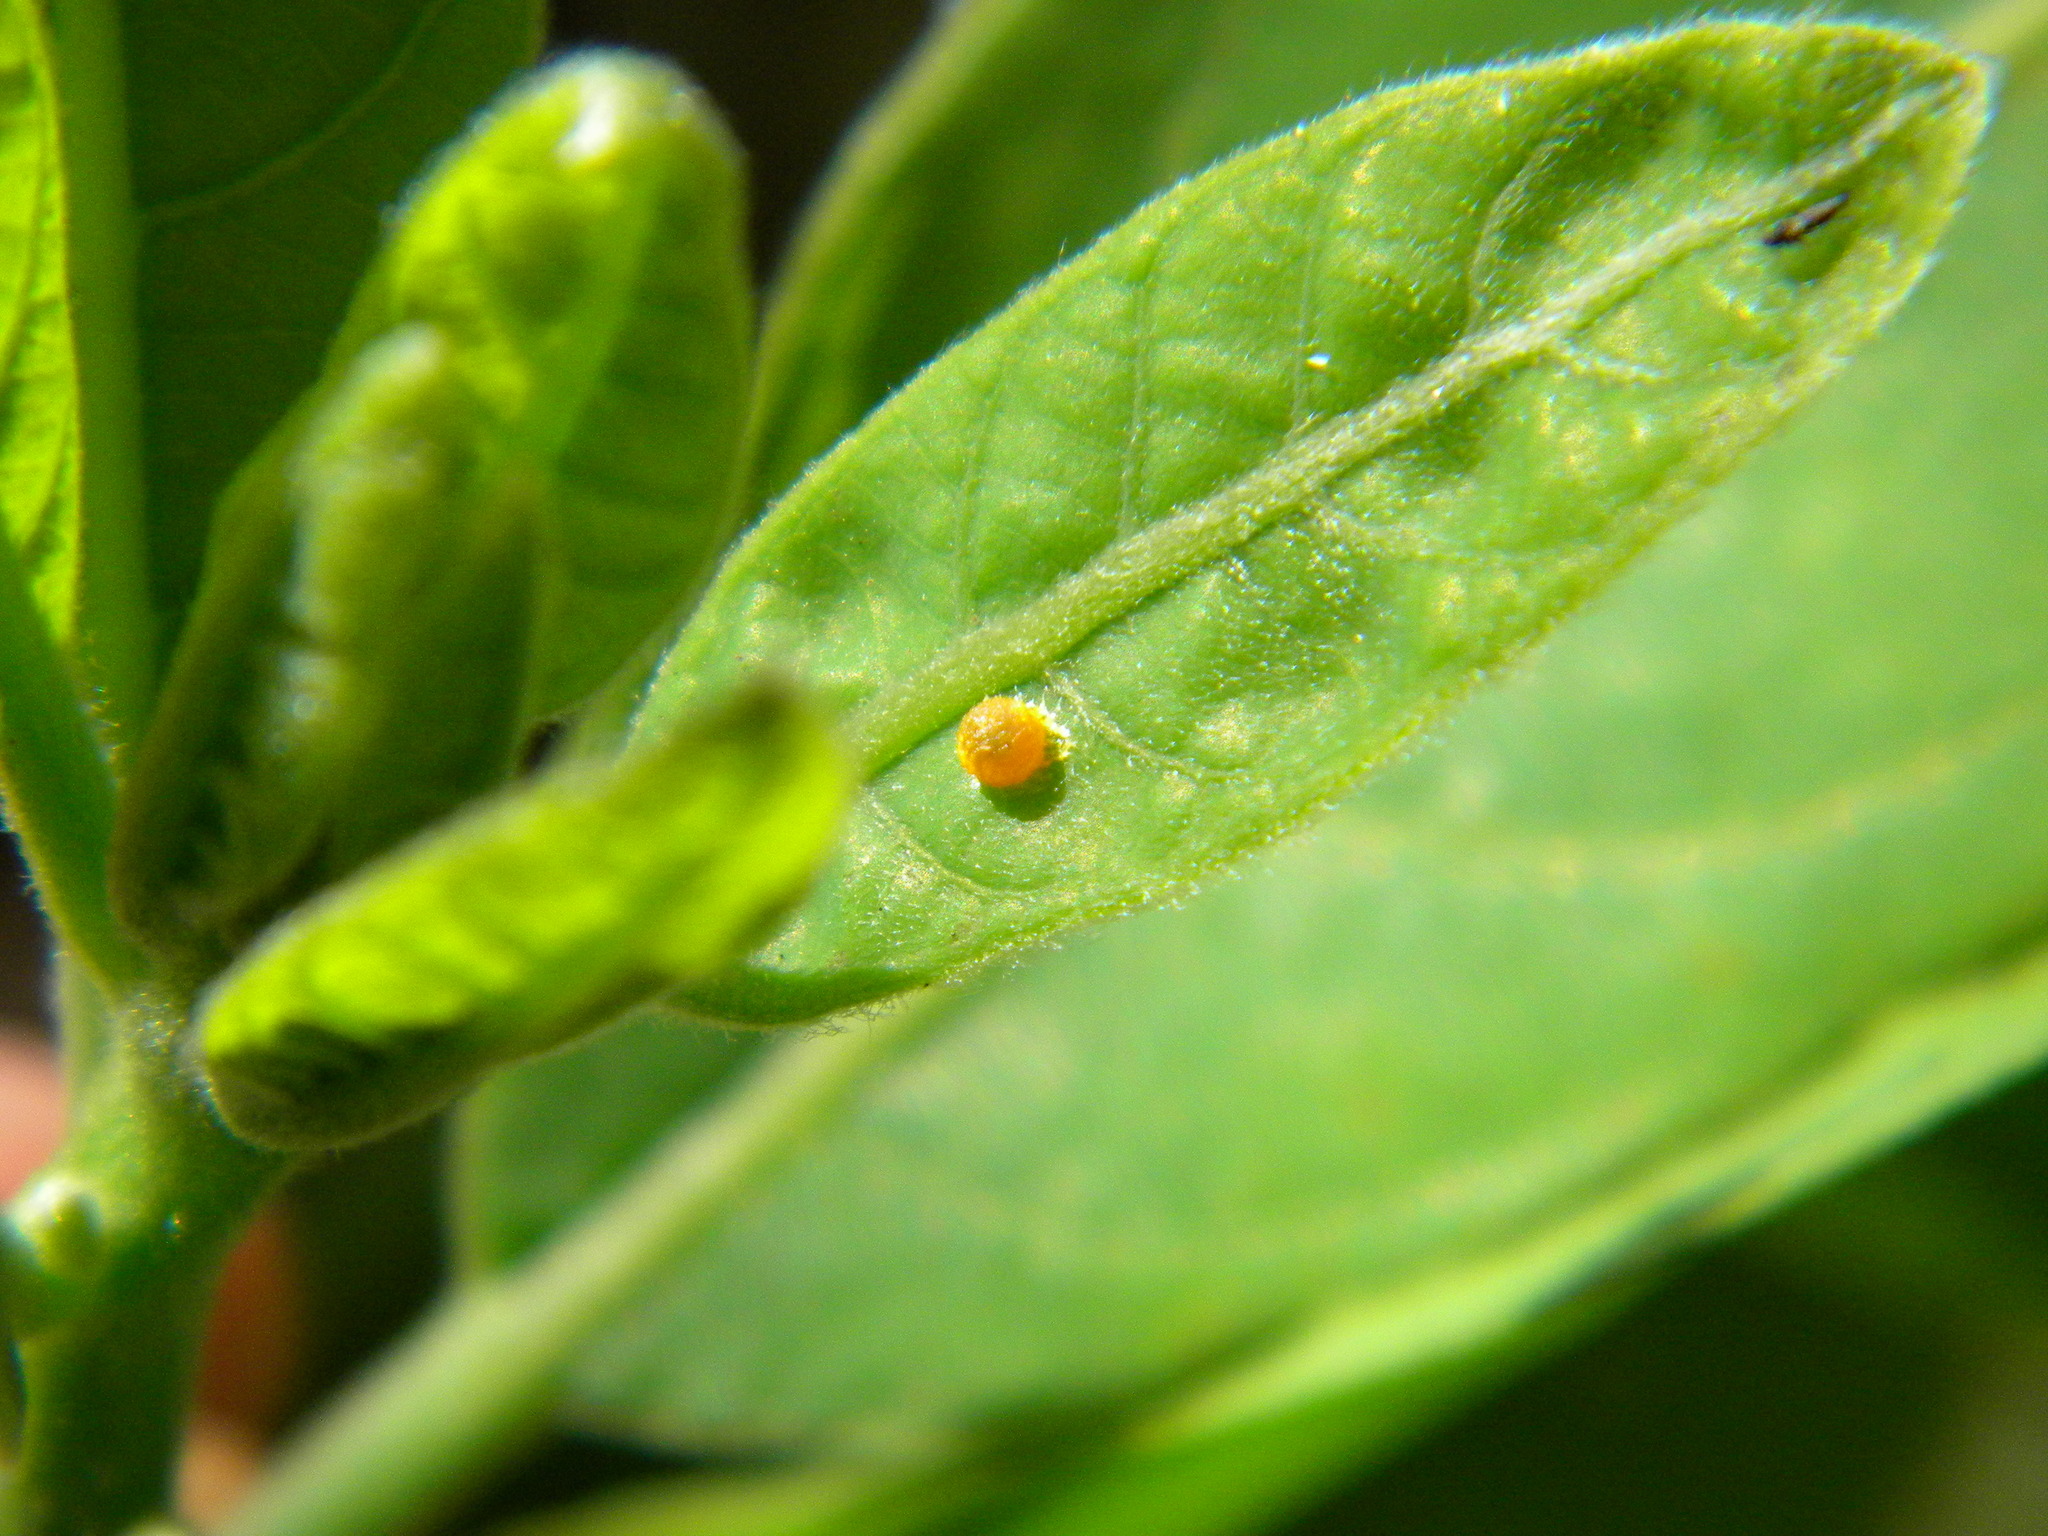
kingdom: Animalia
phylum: Arthropoda
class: Insecta
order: Lepidoptera
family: Papilionidae
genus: Chilasa
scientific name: Chilasa clytia
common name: Common mime
